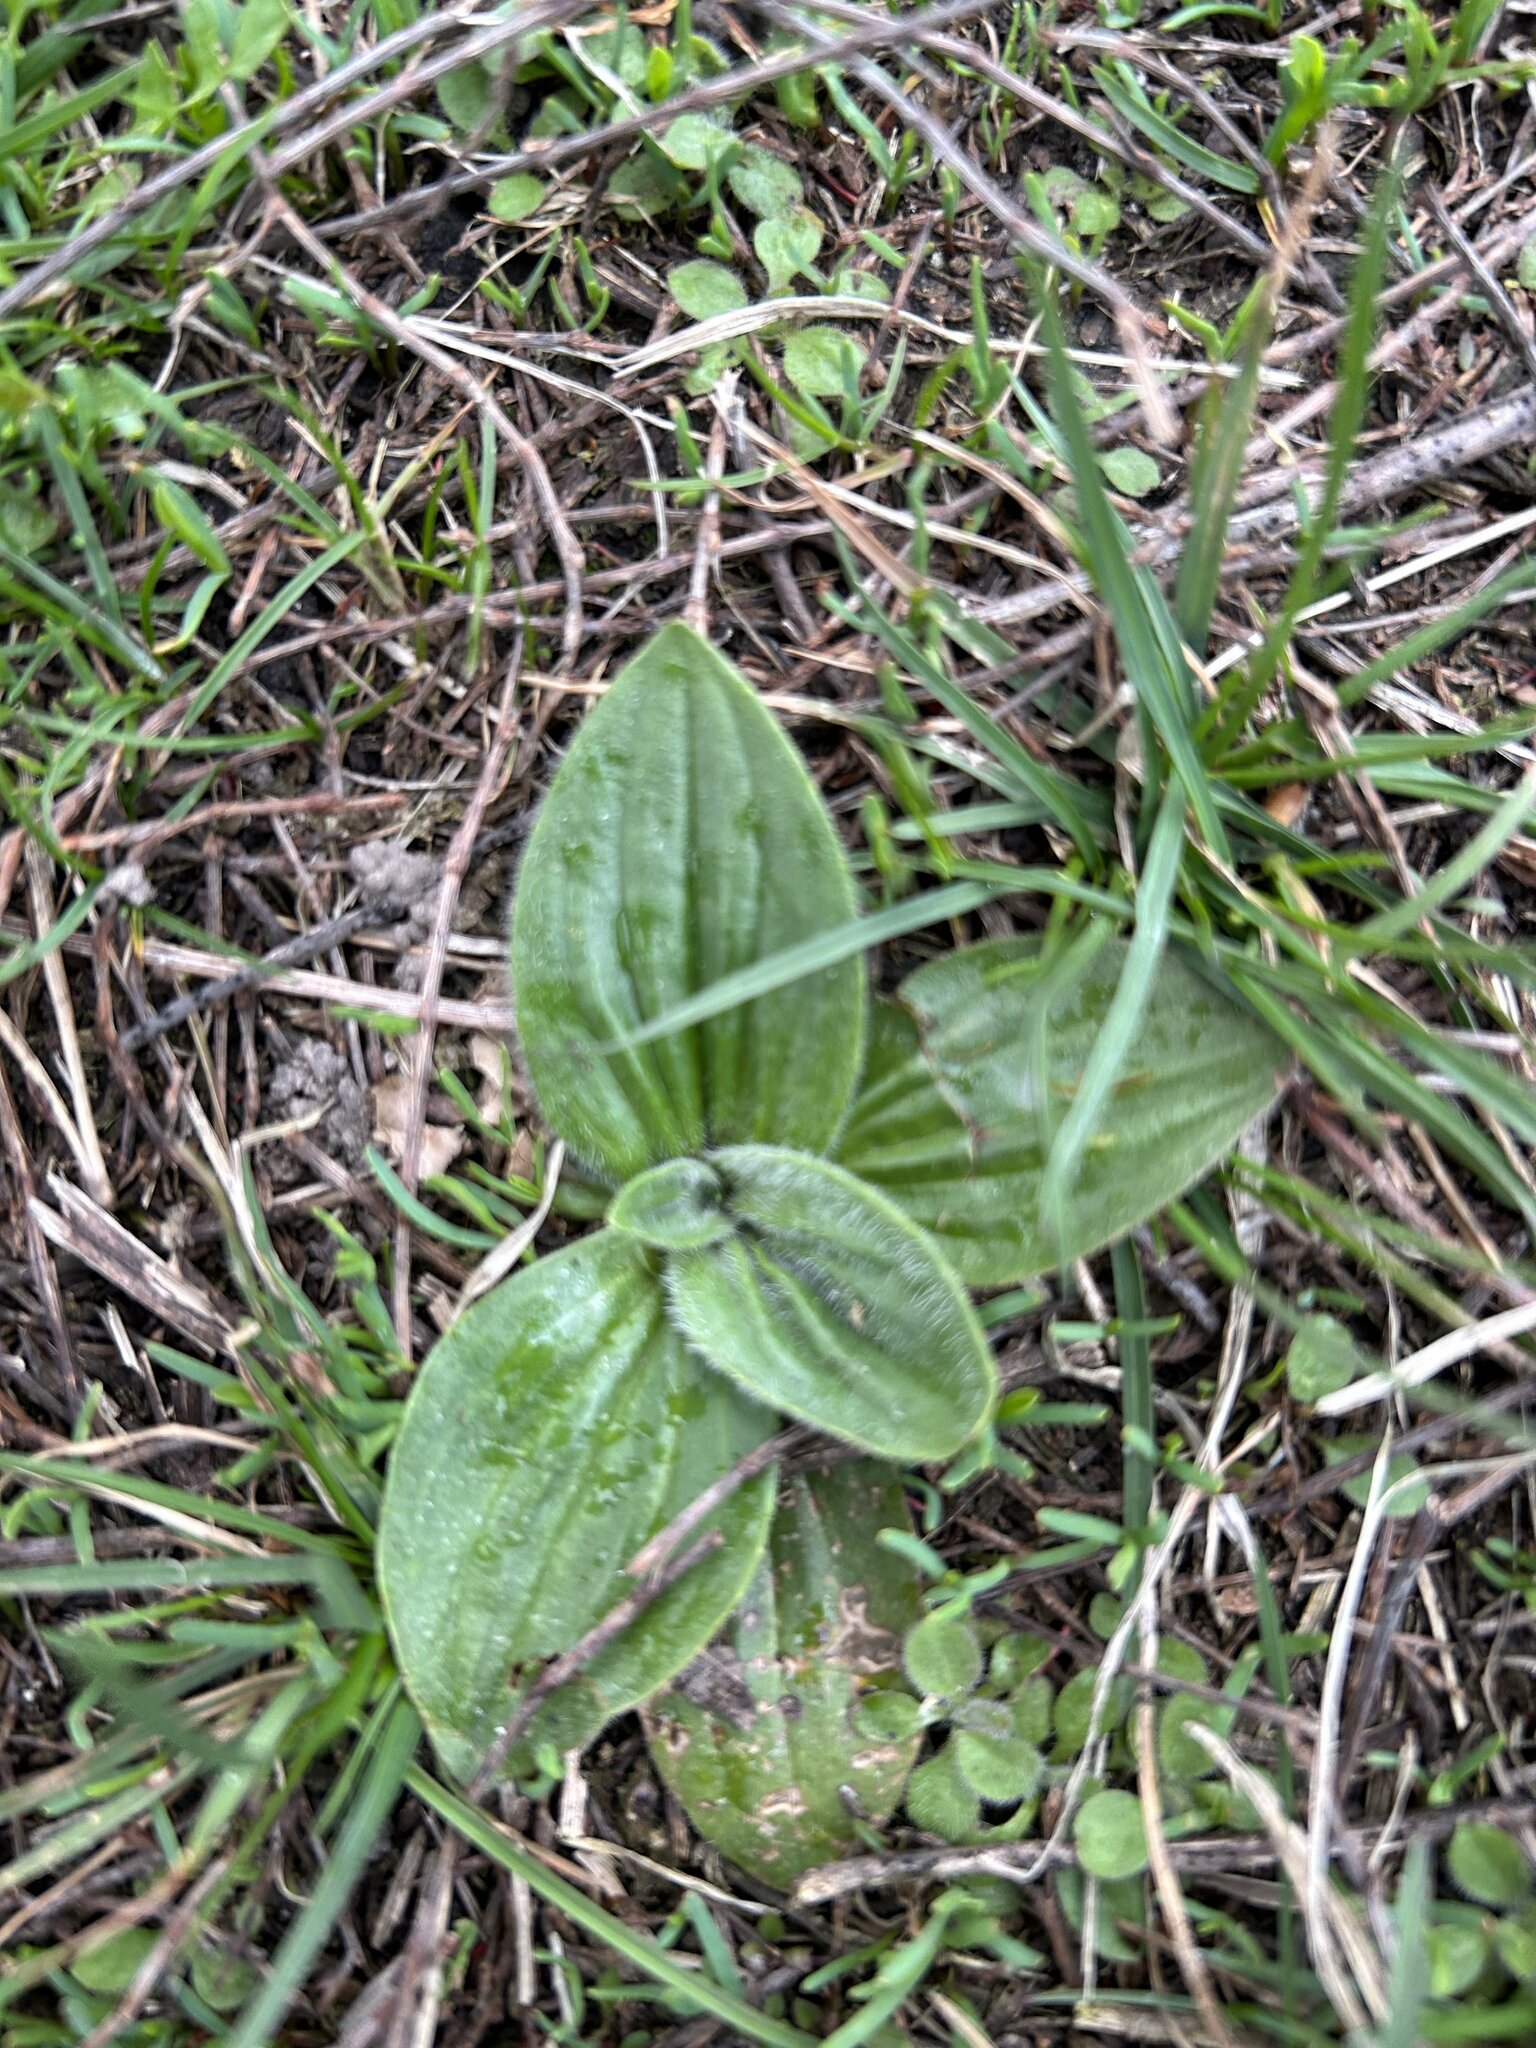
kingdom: Plantae
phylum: Tracheophyta
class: Magnoliopsida
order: Lamiales
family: Plantaginaceae
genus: Plantago
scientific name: Plantago media
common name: Hoary plantain
